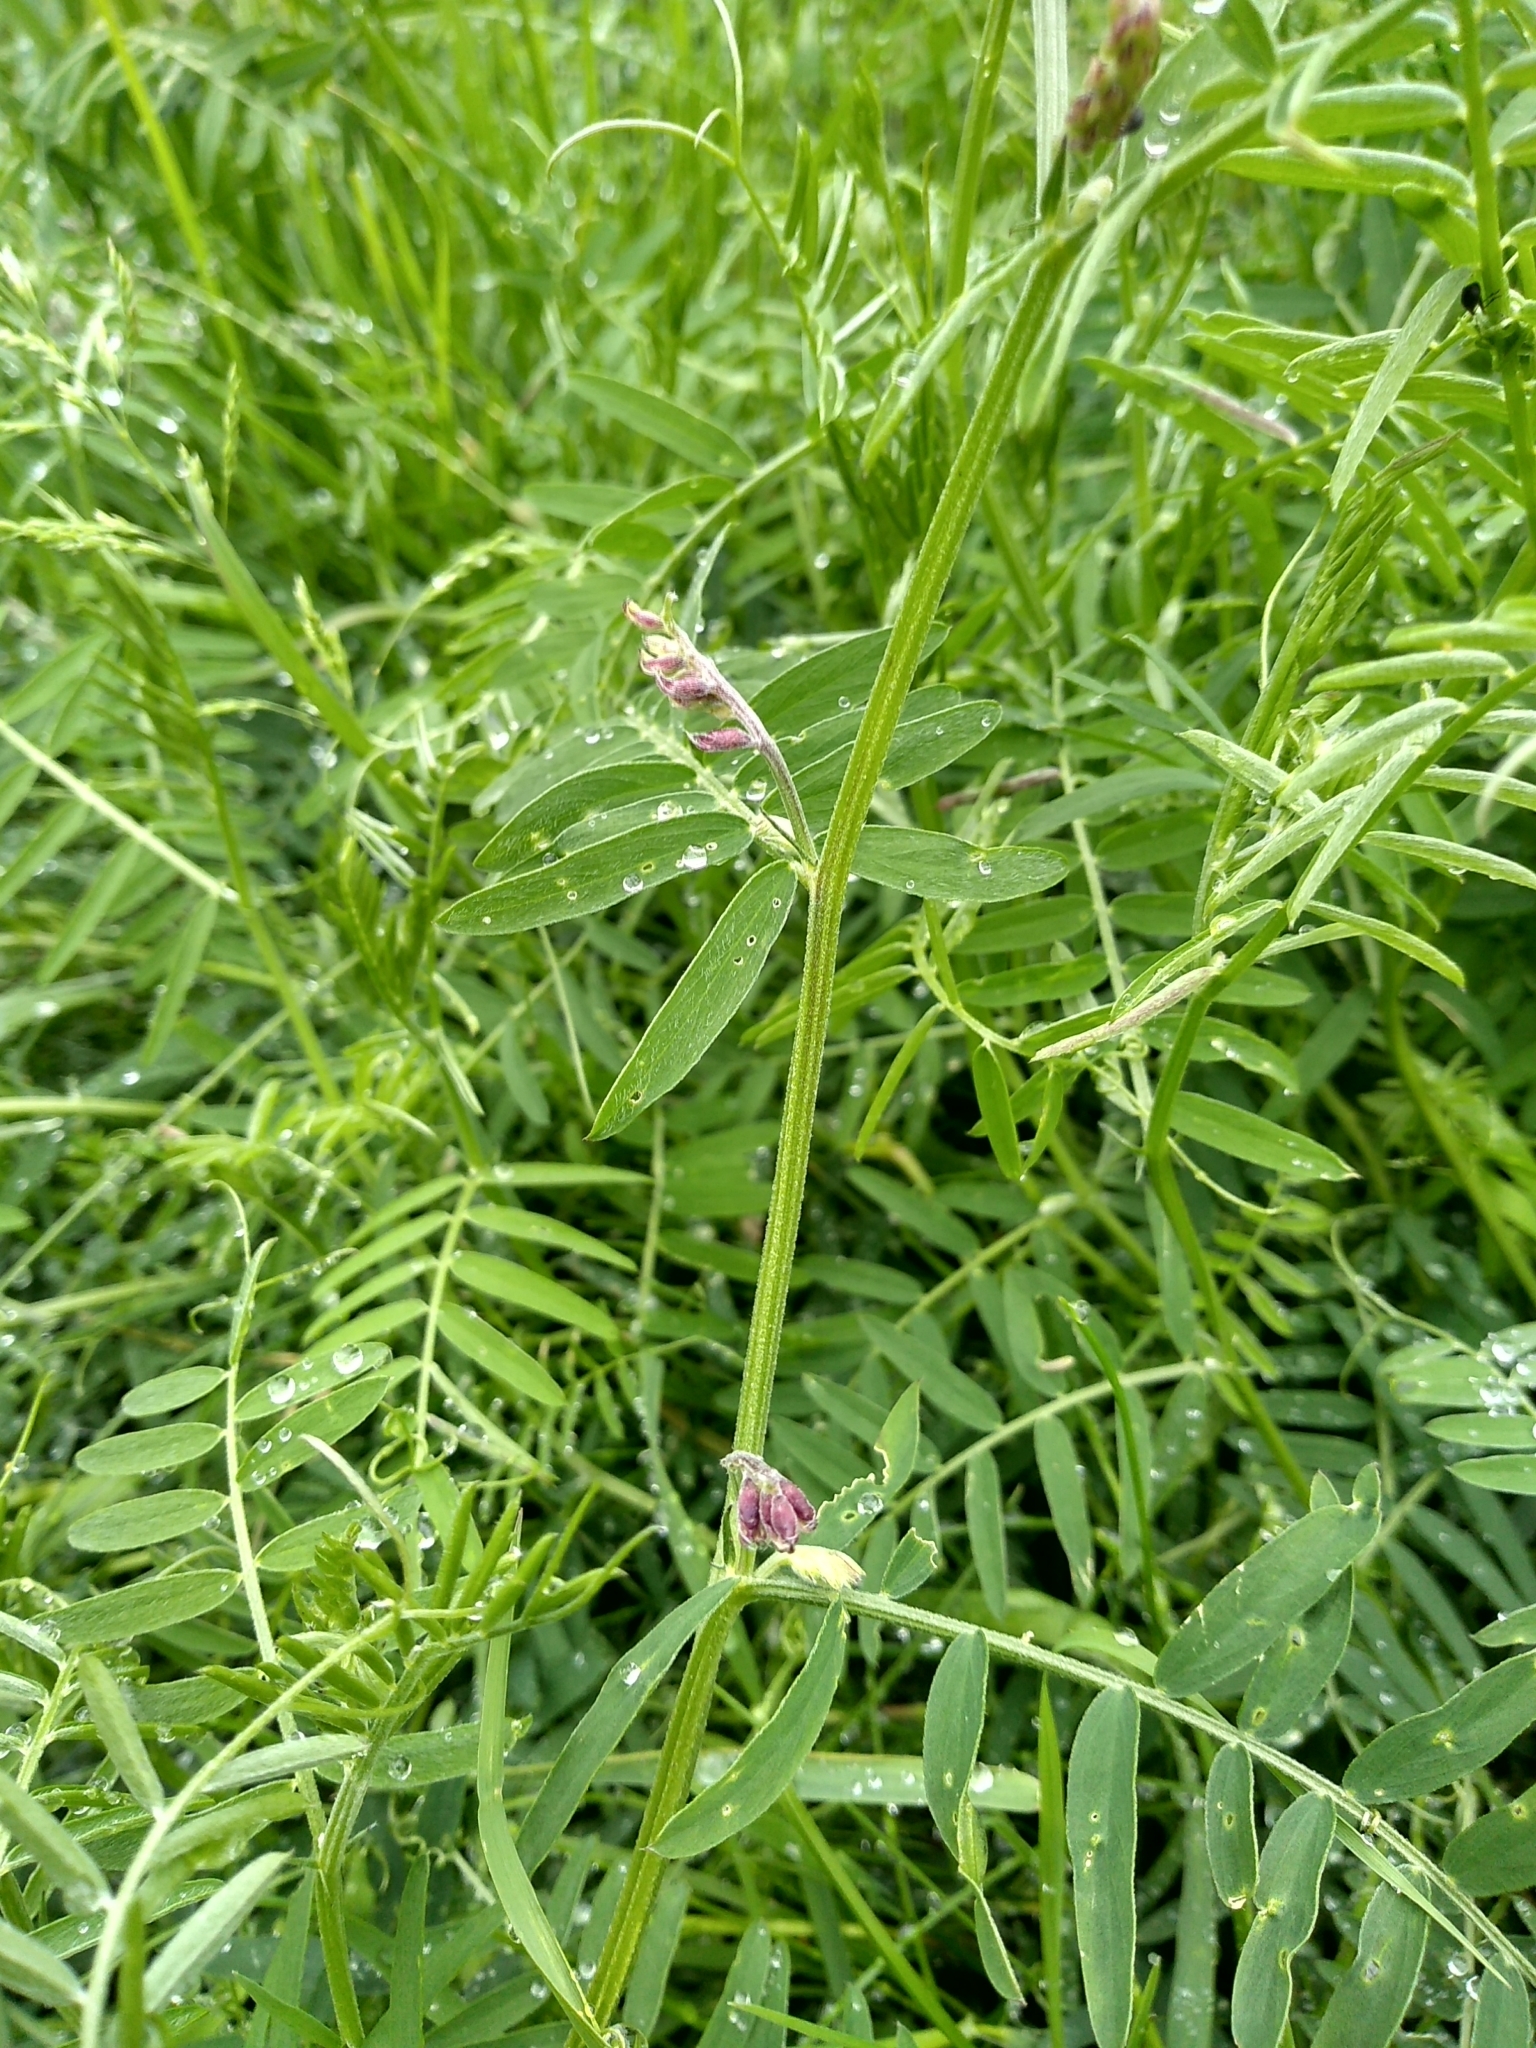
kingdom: Plantae
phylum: Tracheophyta
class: Magnoliopsida
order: Fabales
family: Fabaceae
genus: Vicia
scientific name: Vicia cracca
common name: Bird vetch
